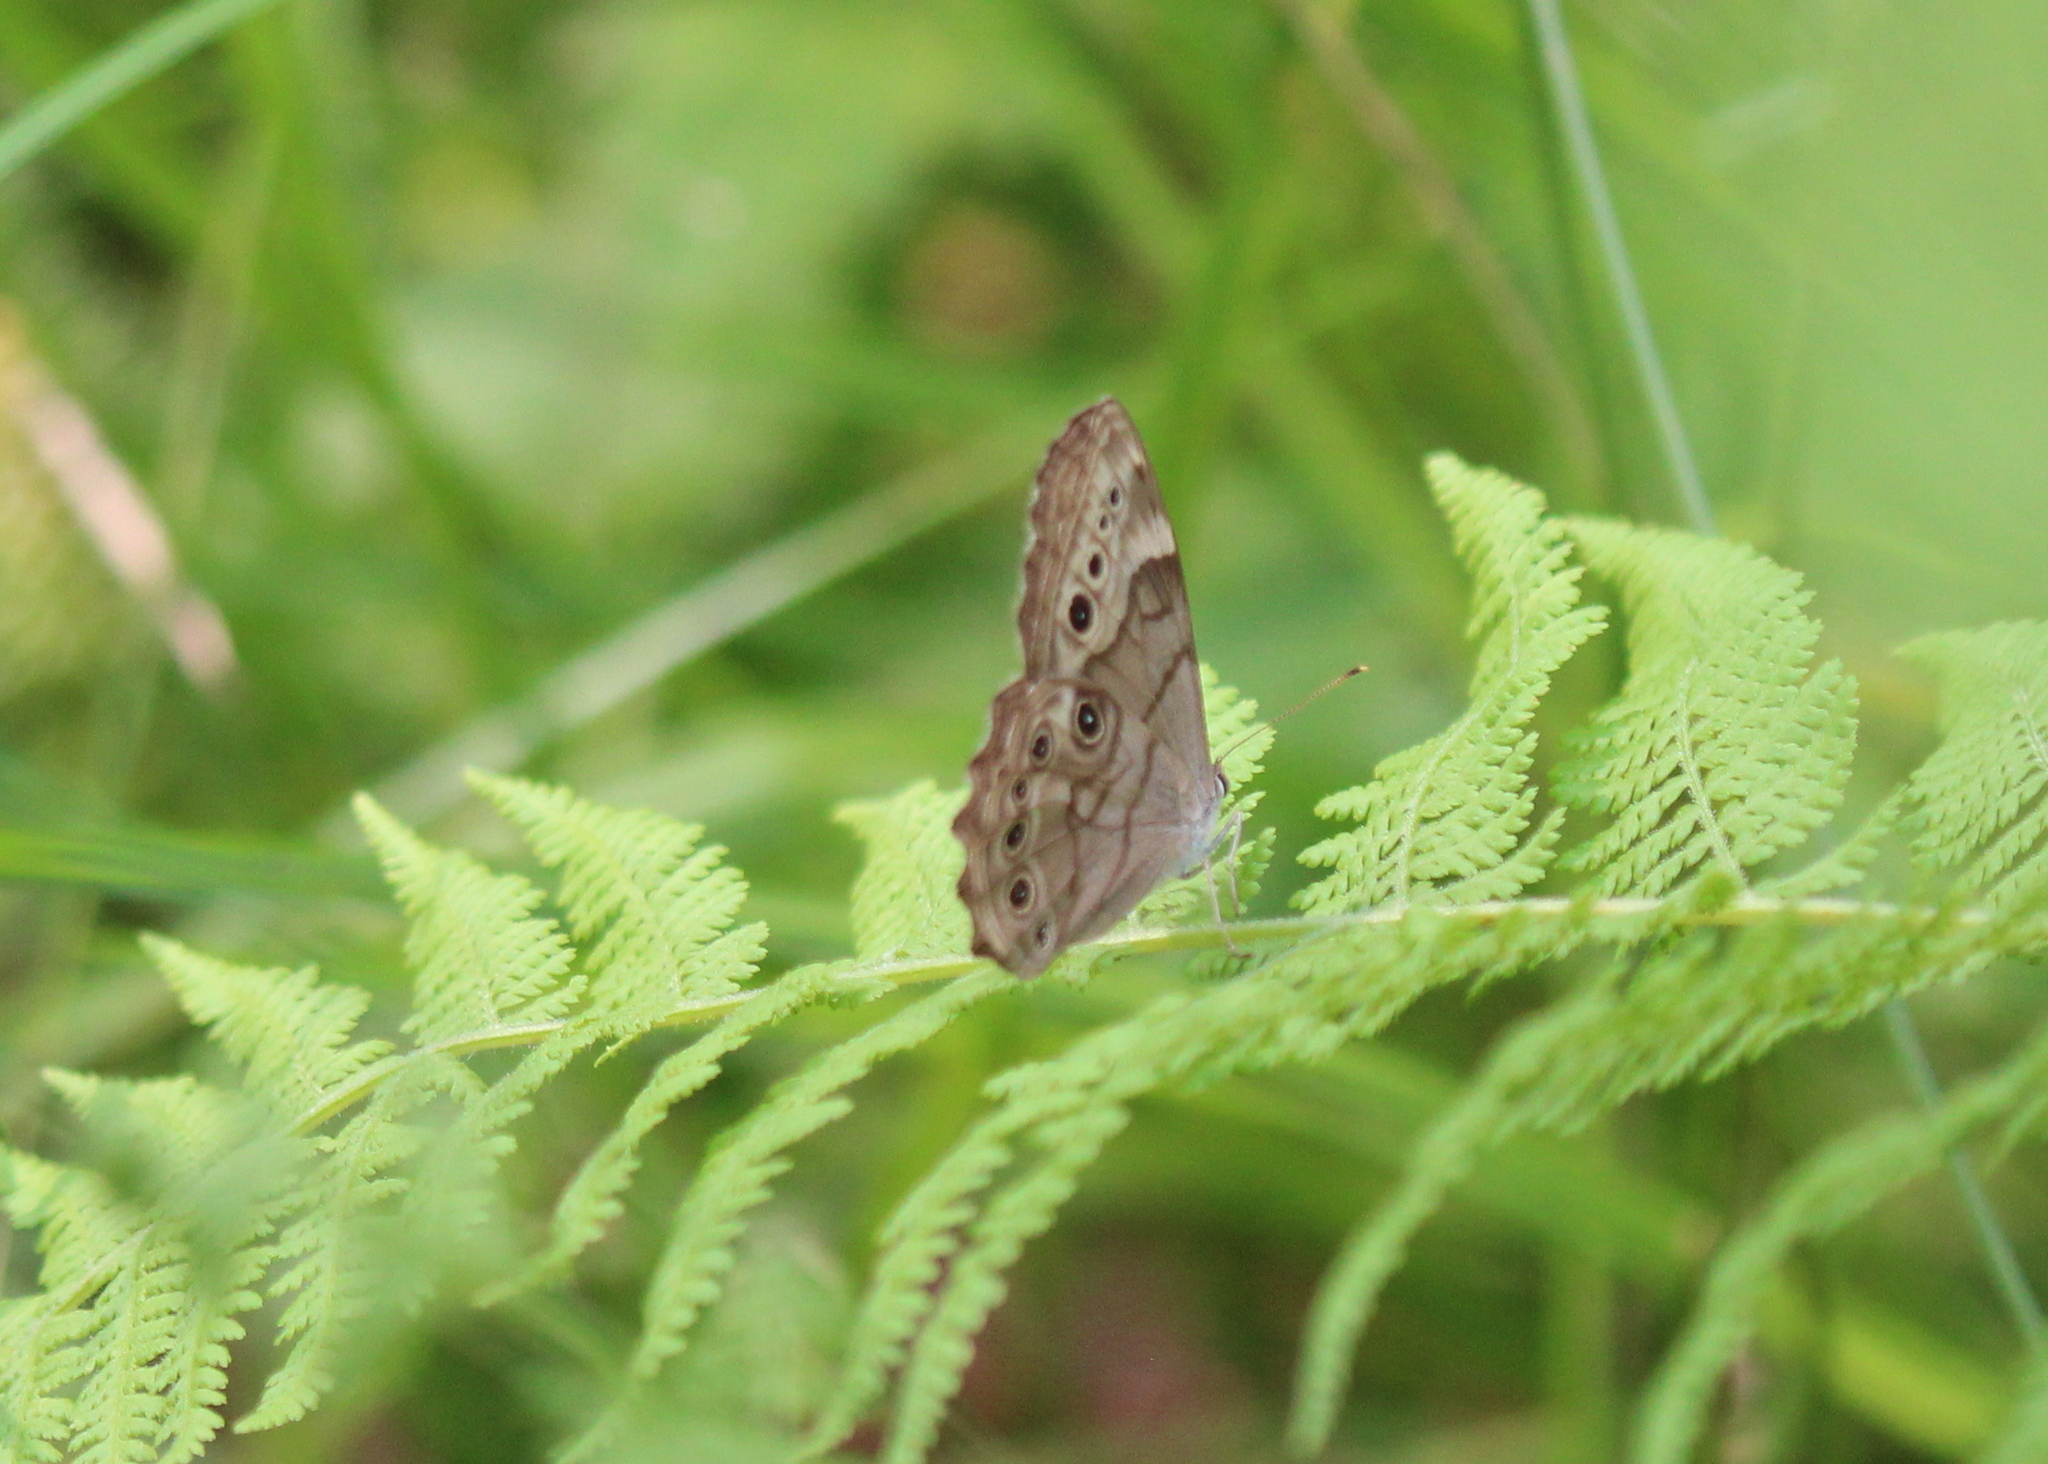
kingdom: Animalia
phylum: Arthropoda
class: Insecta
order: Lepidoptera
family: Nymphalidae
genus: Lethe
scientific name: Lethe anthedon
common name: Northern pearly-eye
